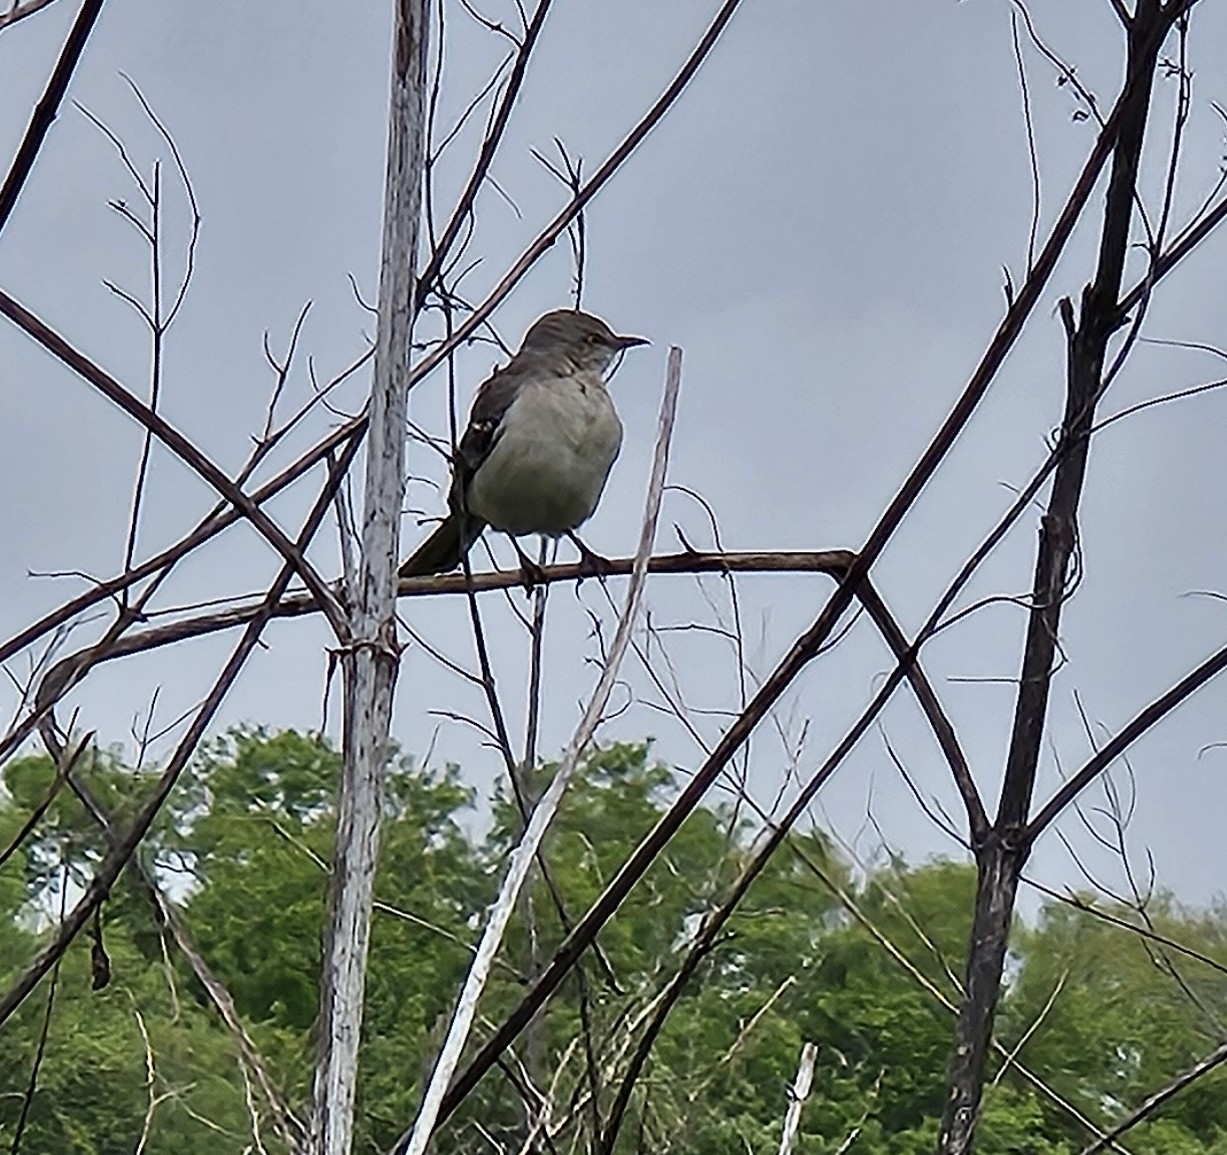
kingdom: Animalia
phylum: Chordata
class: Aves
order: Passeriformes
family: Mimidae
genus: Mimus
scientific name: Mimus polyglottos
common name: Northern mockingbird
